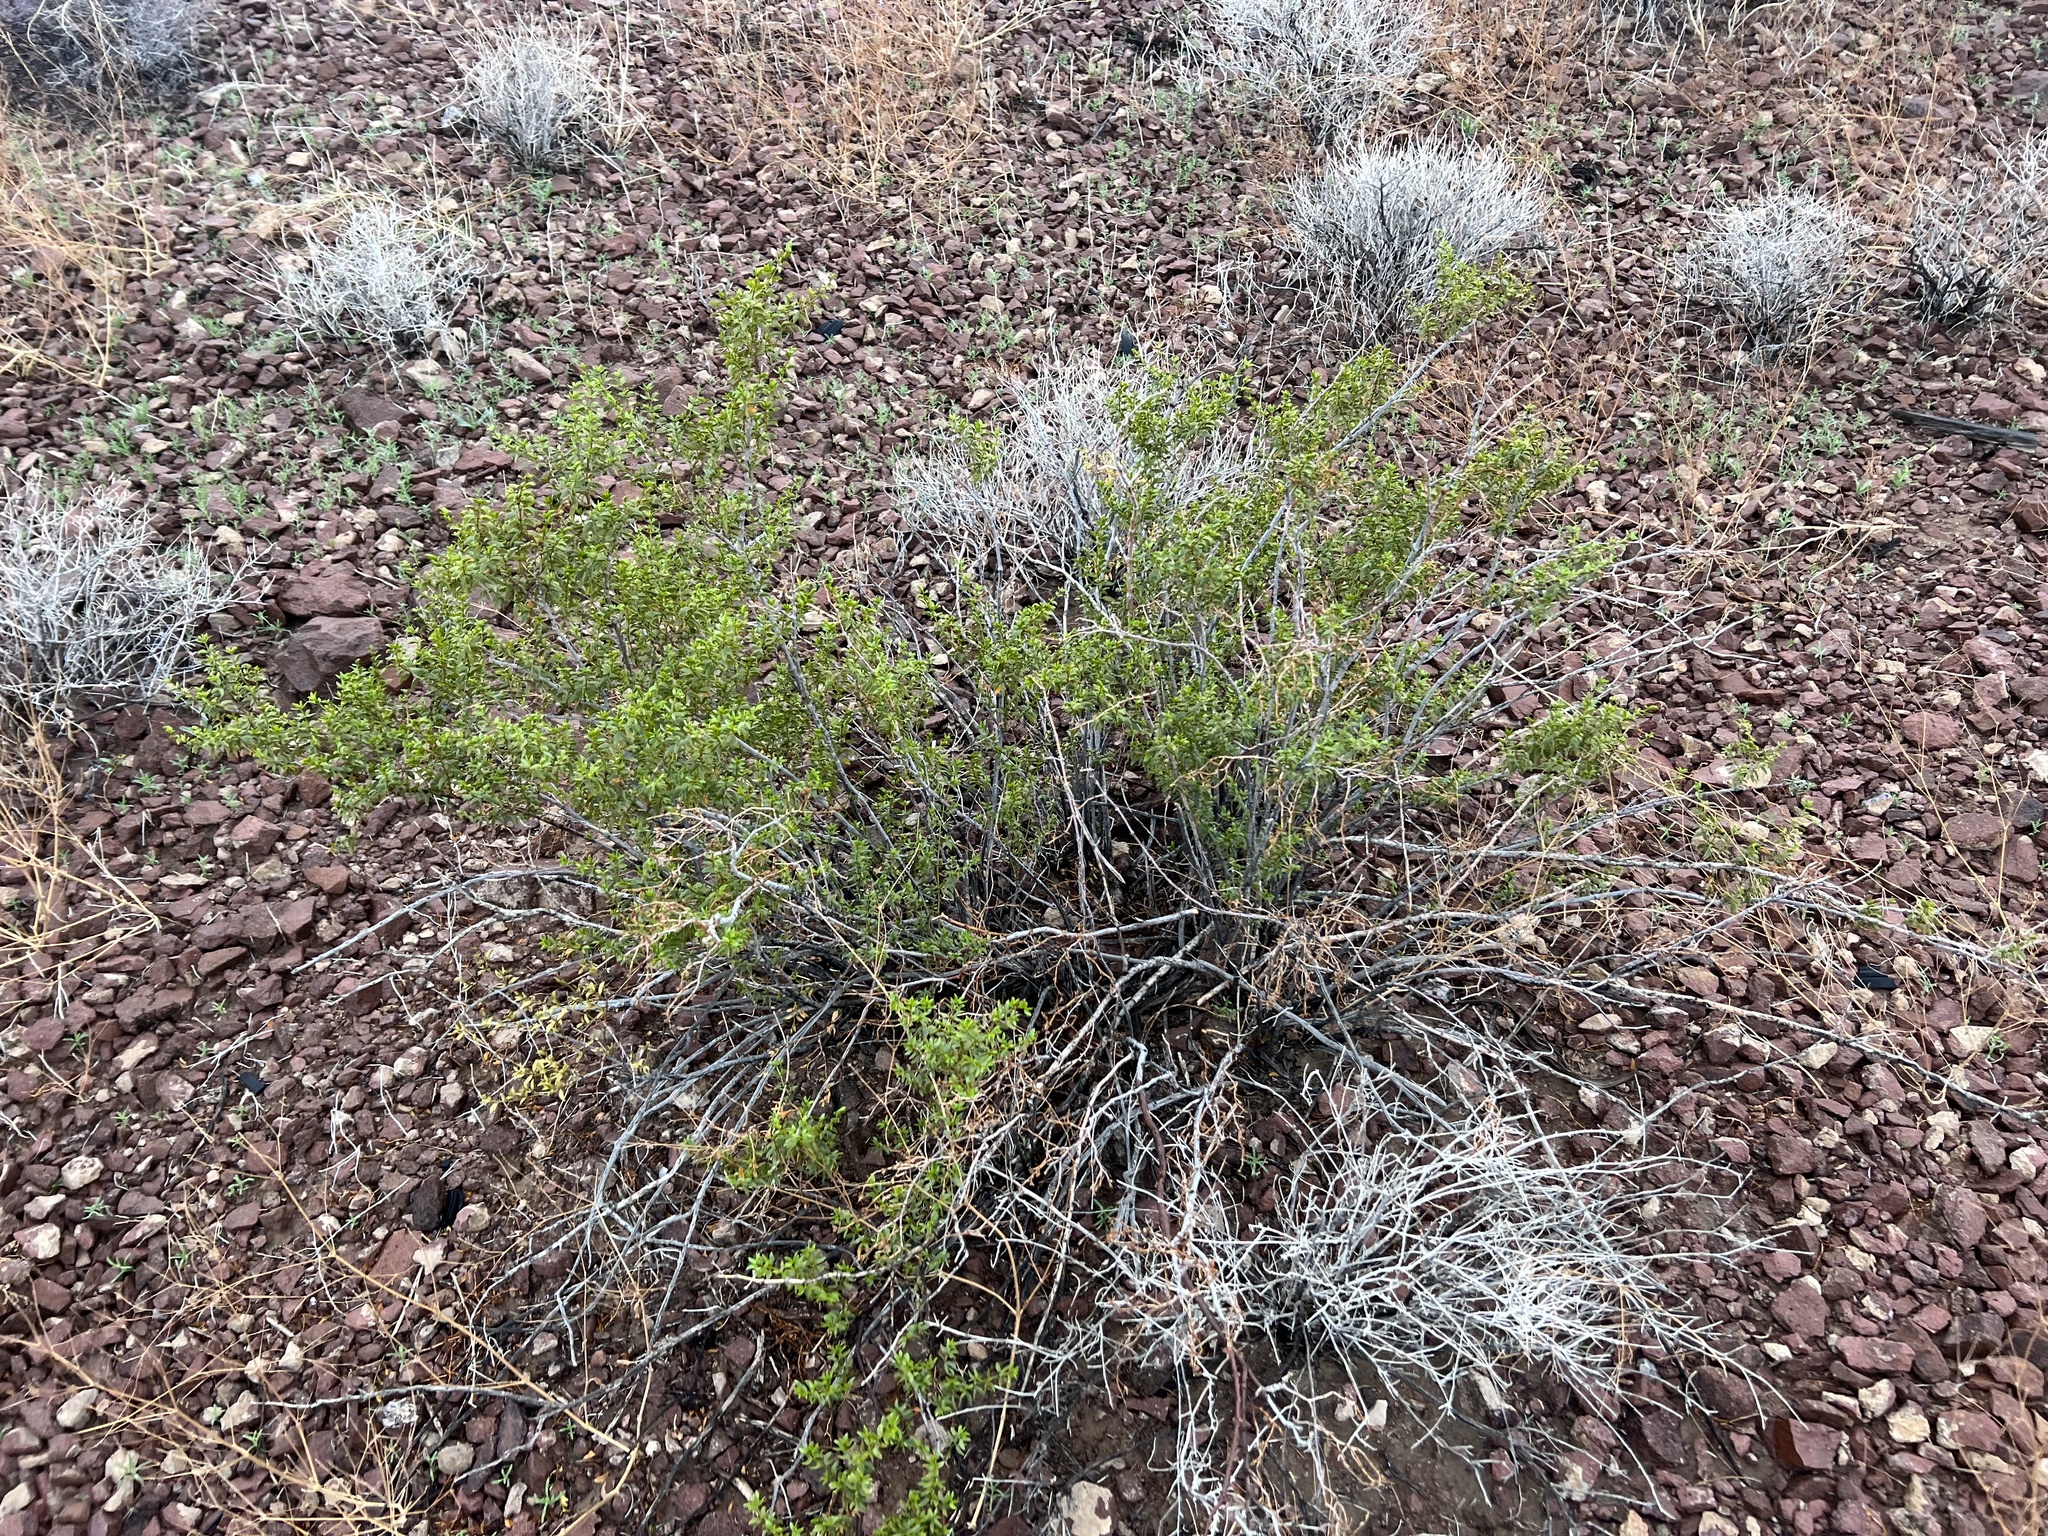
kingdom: Plantae
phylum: Tracheophyta
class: Magnoliopsida
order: Zygophyllales
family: Zygophyllaceae
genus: Larrea
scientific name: Larrea tridentata
